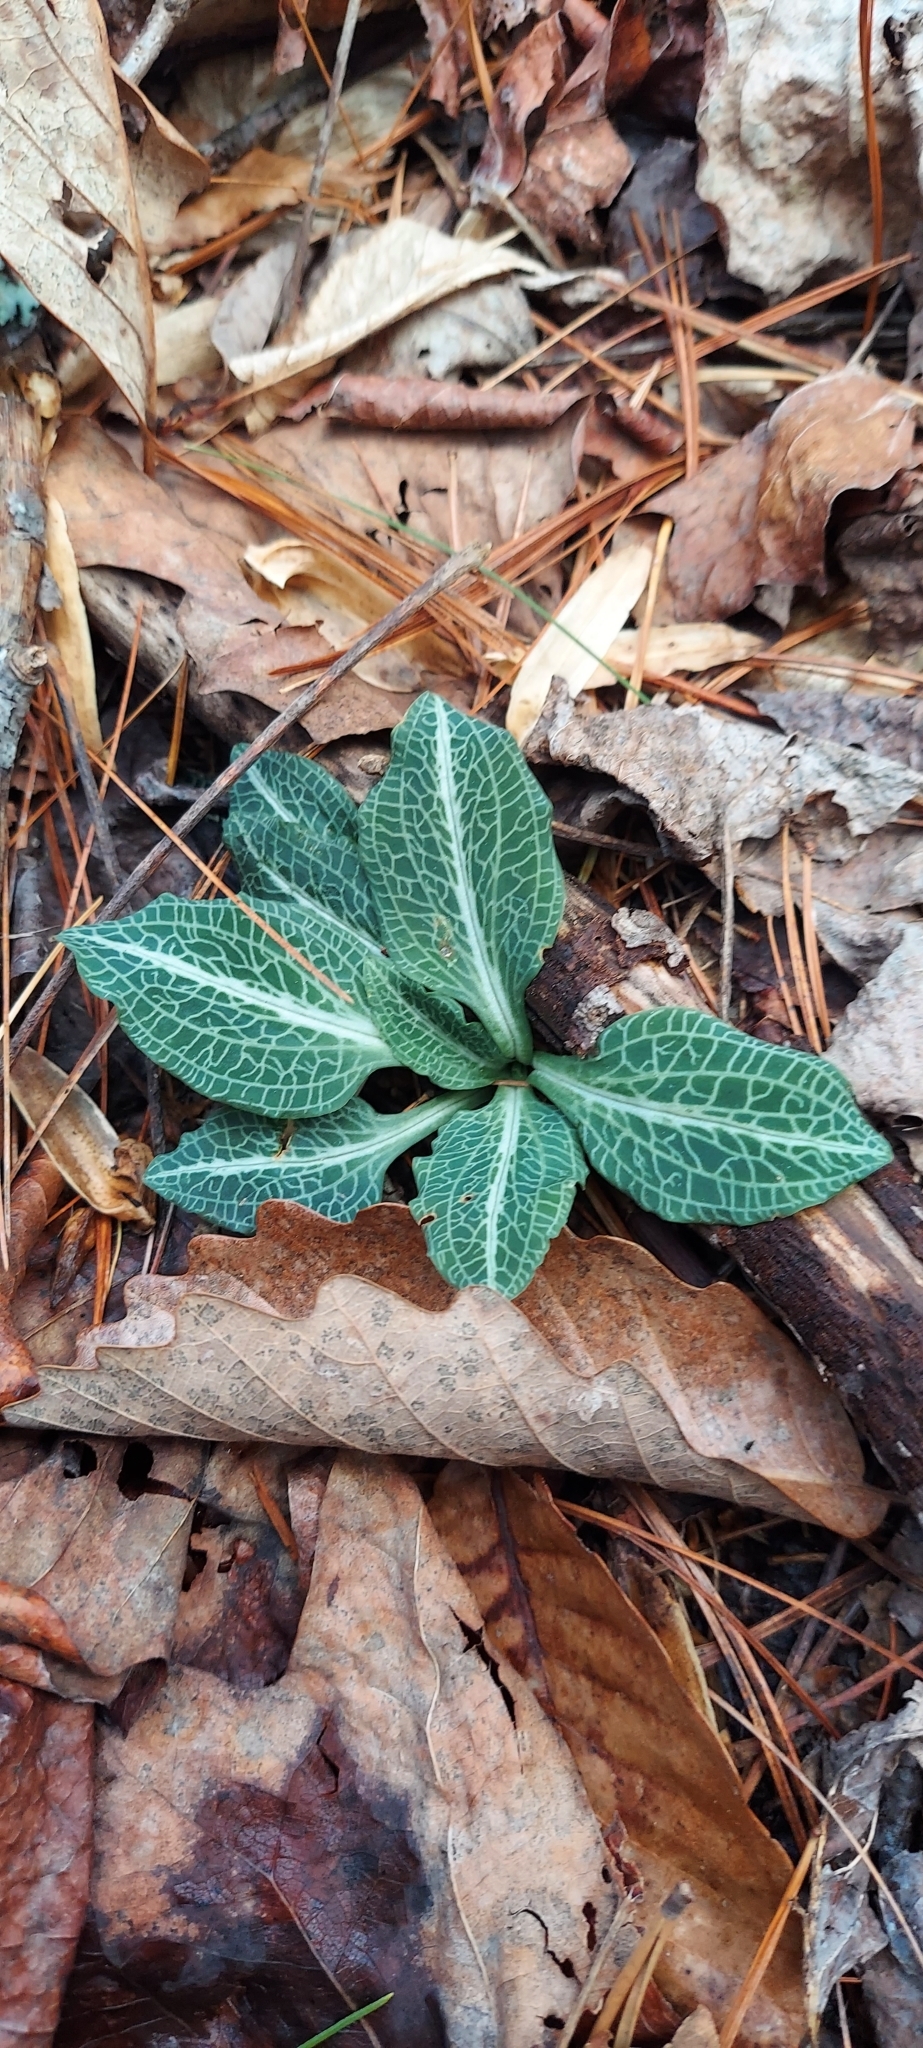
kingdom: Plantae
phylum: Tracheophyta
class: Liliopsida
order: Asparagales
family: Orchidaceae
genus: Goodyera
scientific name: Goodyera pubescens
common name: Downy rattlesnake-plantain
